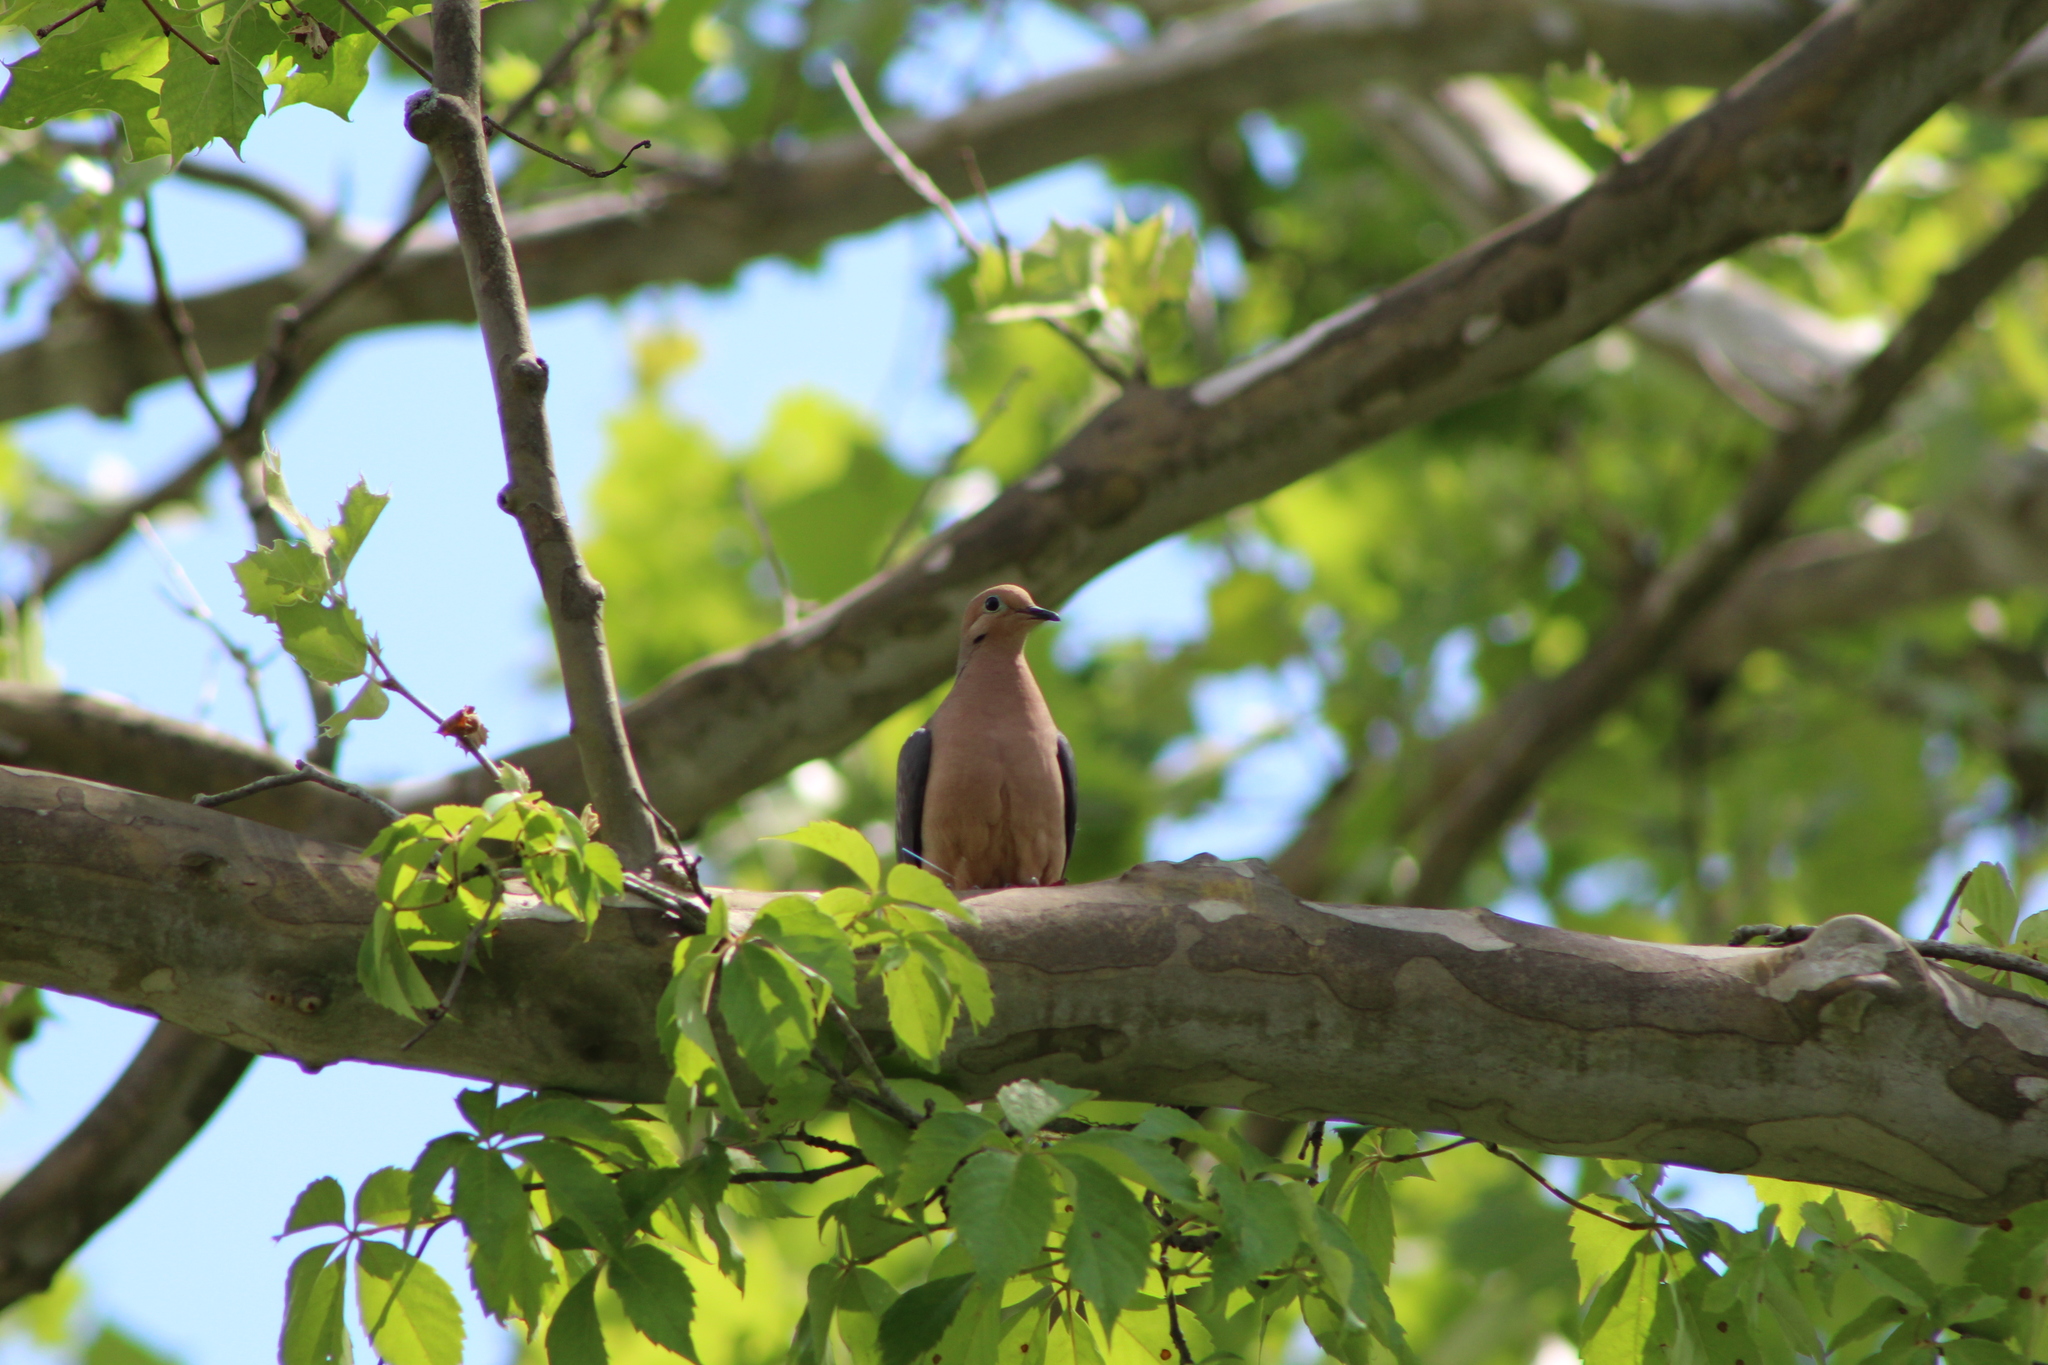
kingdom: Animalia
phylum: Chordata
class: Aves
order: Columbiformes
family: Columbidae
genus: Zenaida
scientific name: Zenaida macroura
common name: Mourning dove
